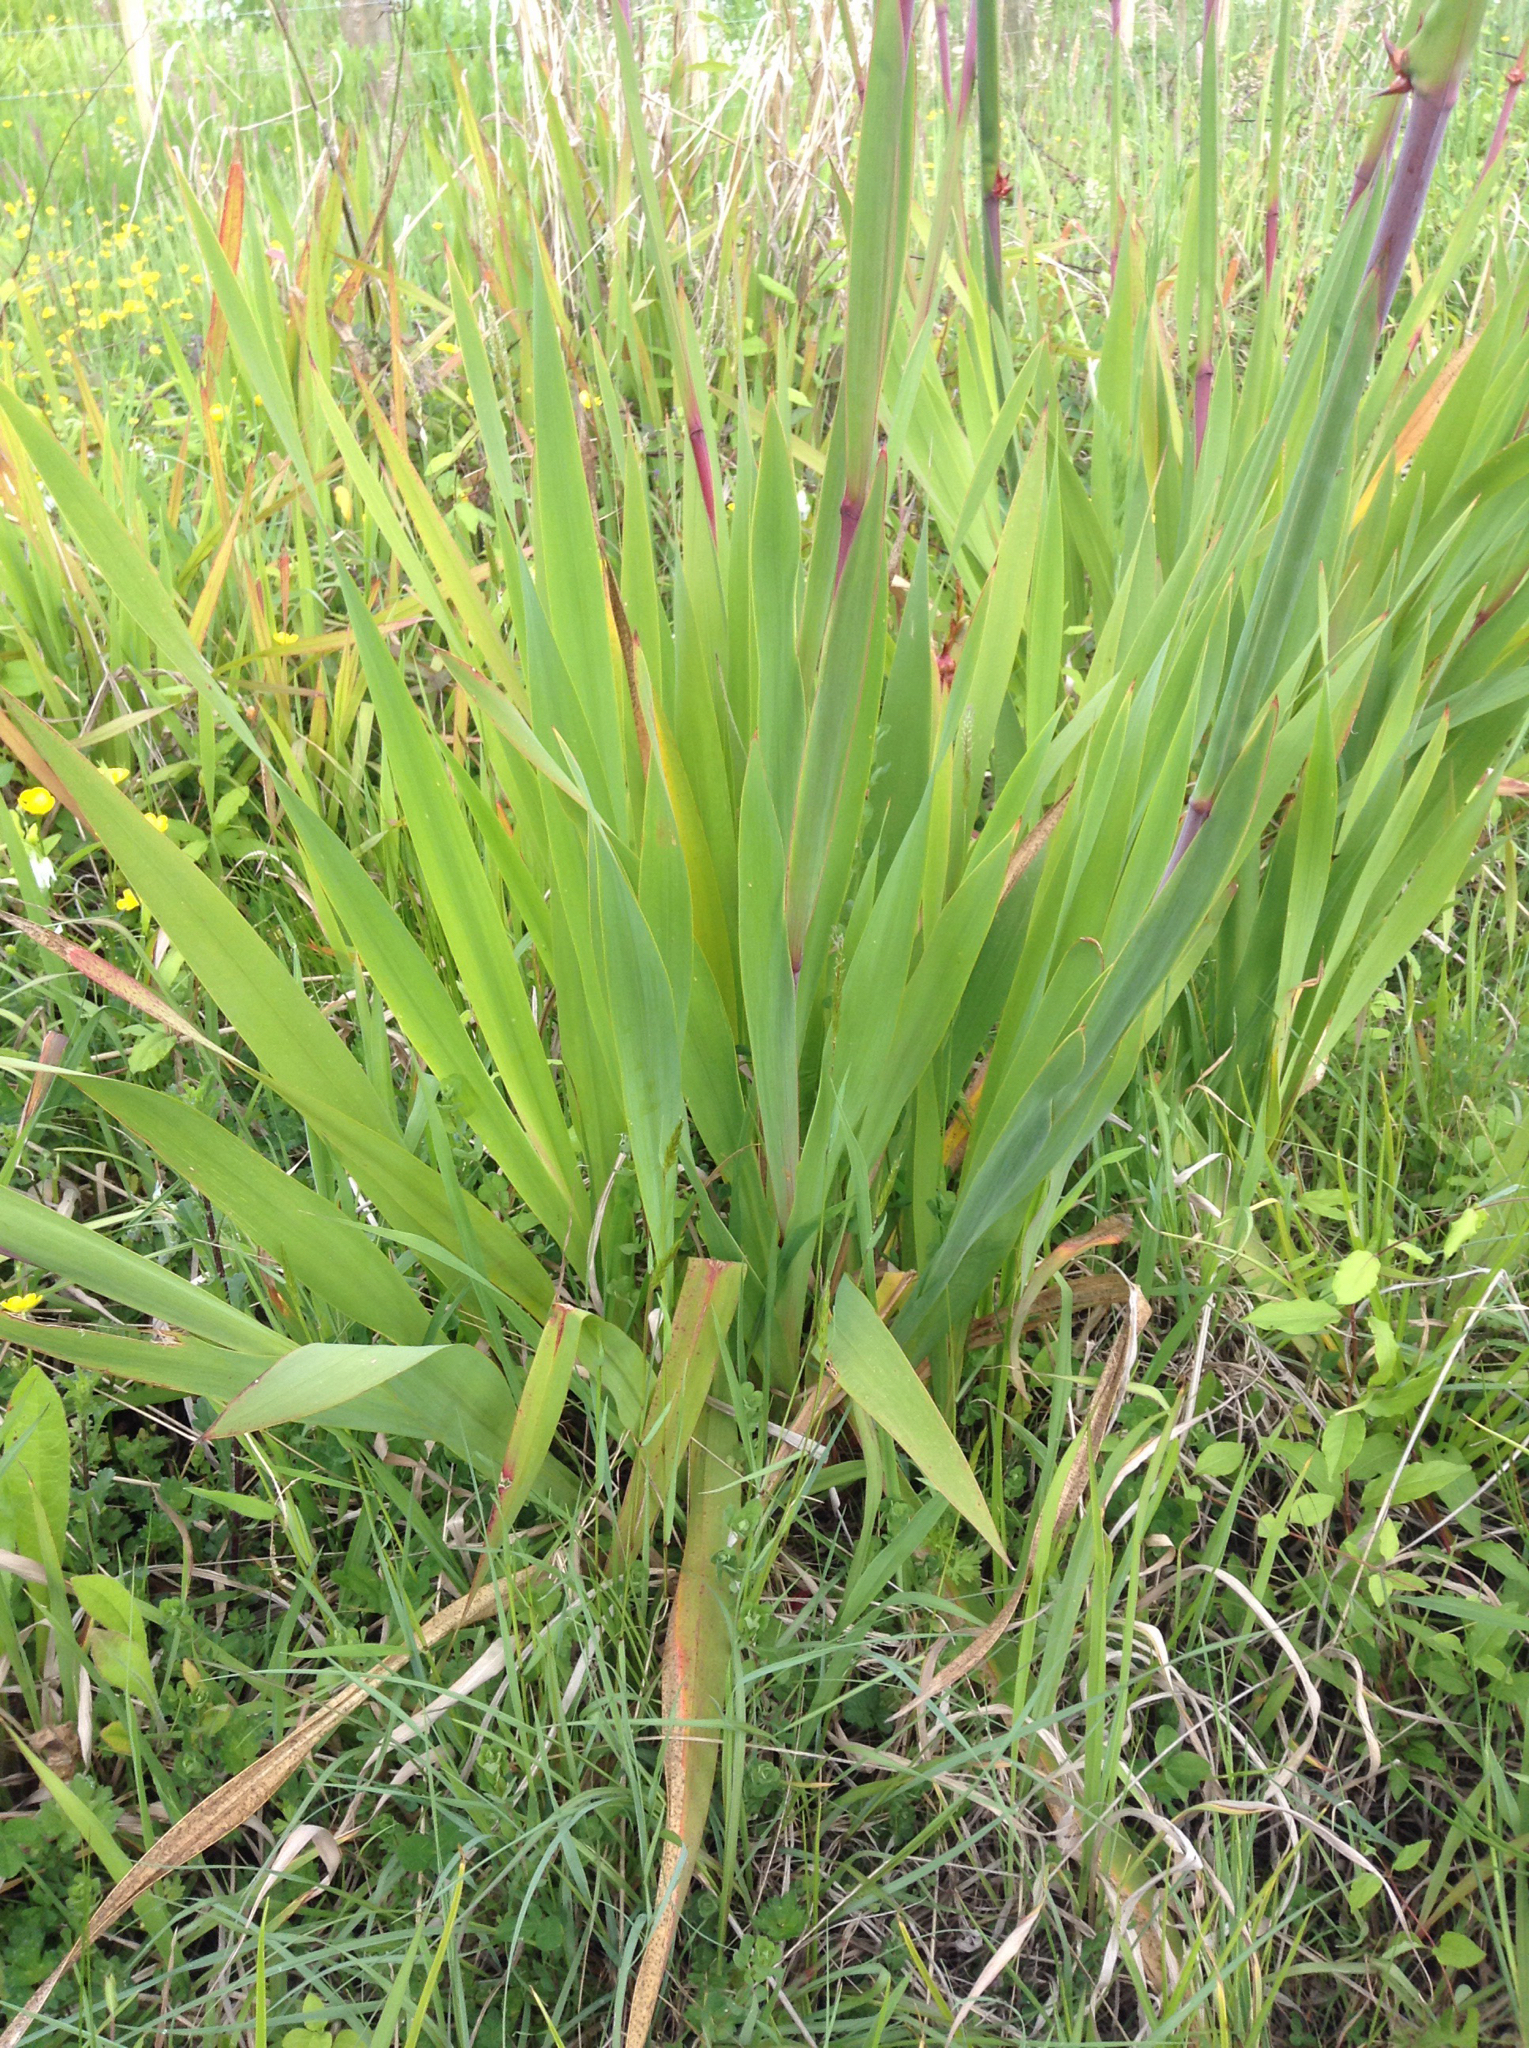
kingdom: Plantae
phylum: Tracheophyta
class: Liliopsida
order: Asparagales
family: Iridaceae
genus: Watsonia
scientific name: Watsonia meriana
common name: Bulbil bugle-lily
